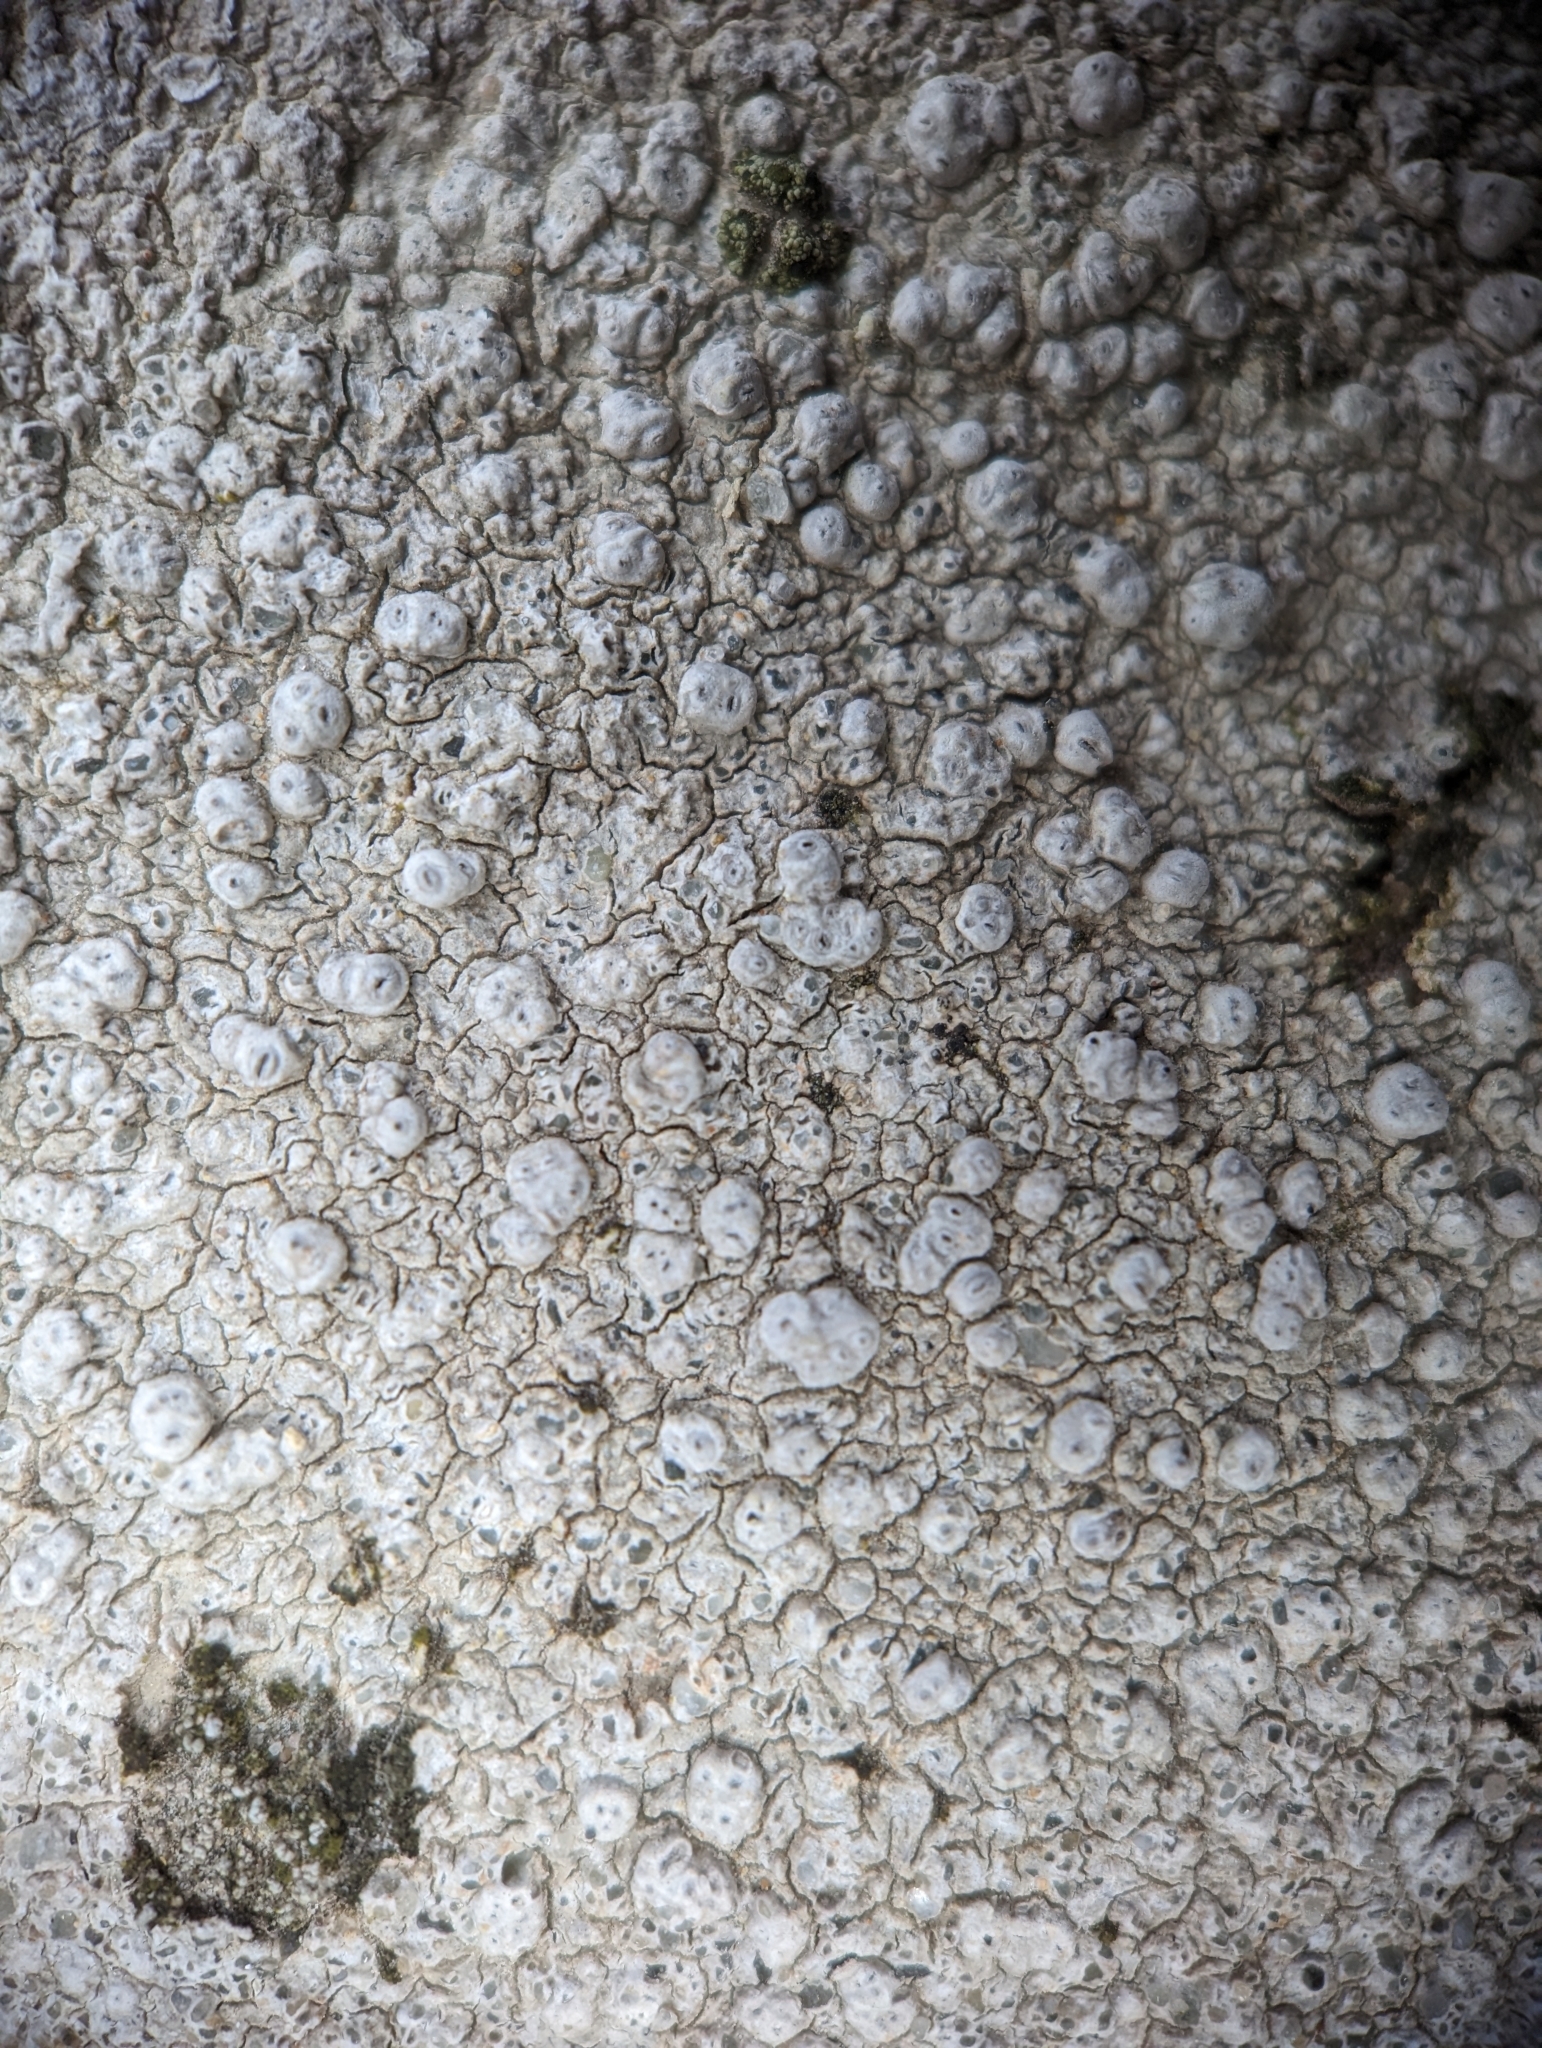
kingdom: Fungi
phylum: Ascomycota
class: Lecanoromycetes
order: Pertusariales
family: Pertusariaceae
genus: Pertusaria
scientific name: Pertusaria plittiana
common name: Rock wart lichen
